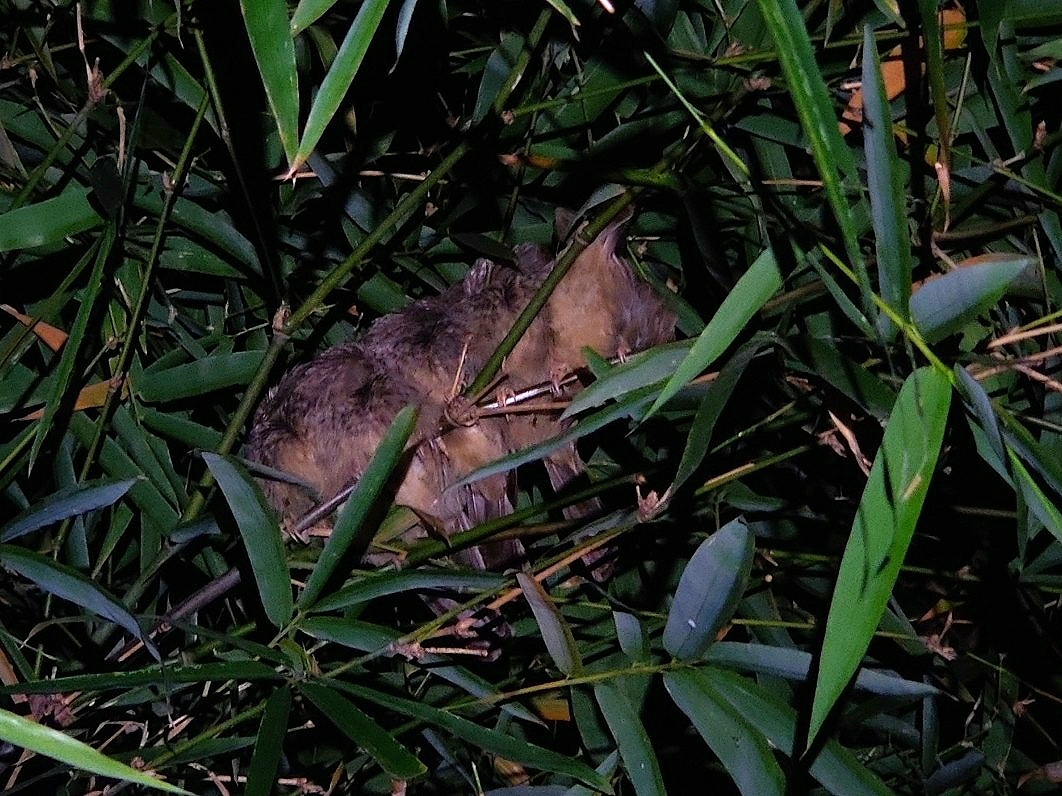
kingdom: Animalia
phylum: Chordata
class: Aves
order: Passeriformes
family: Leiothrichidae
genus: Turdoides
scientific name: Turdoides affinis
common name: Yellow-billed babbler
